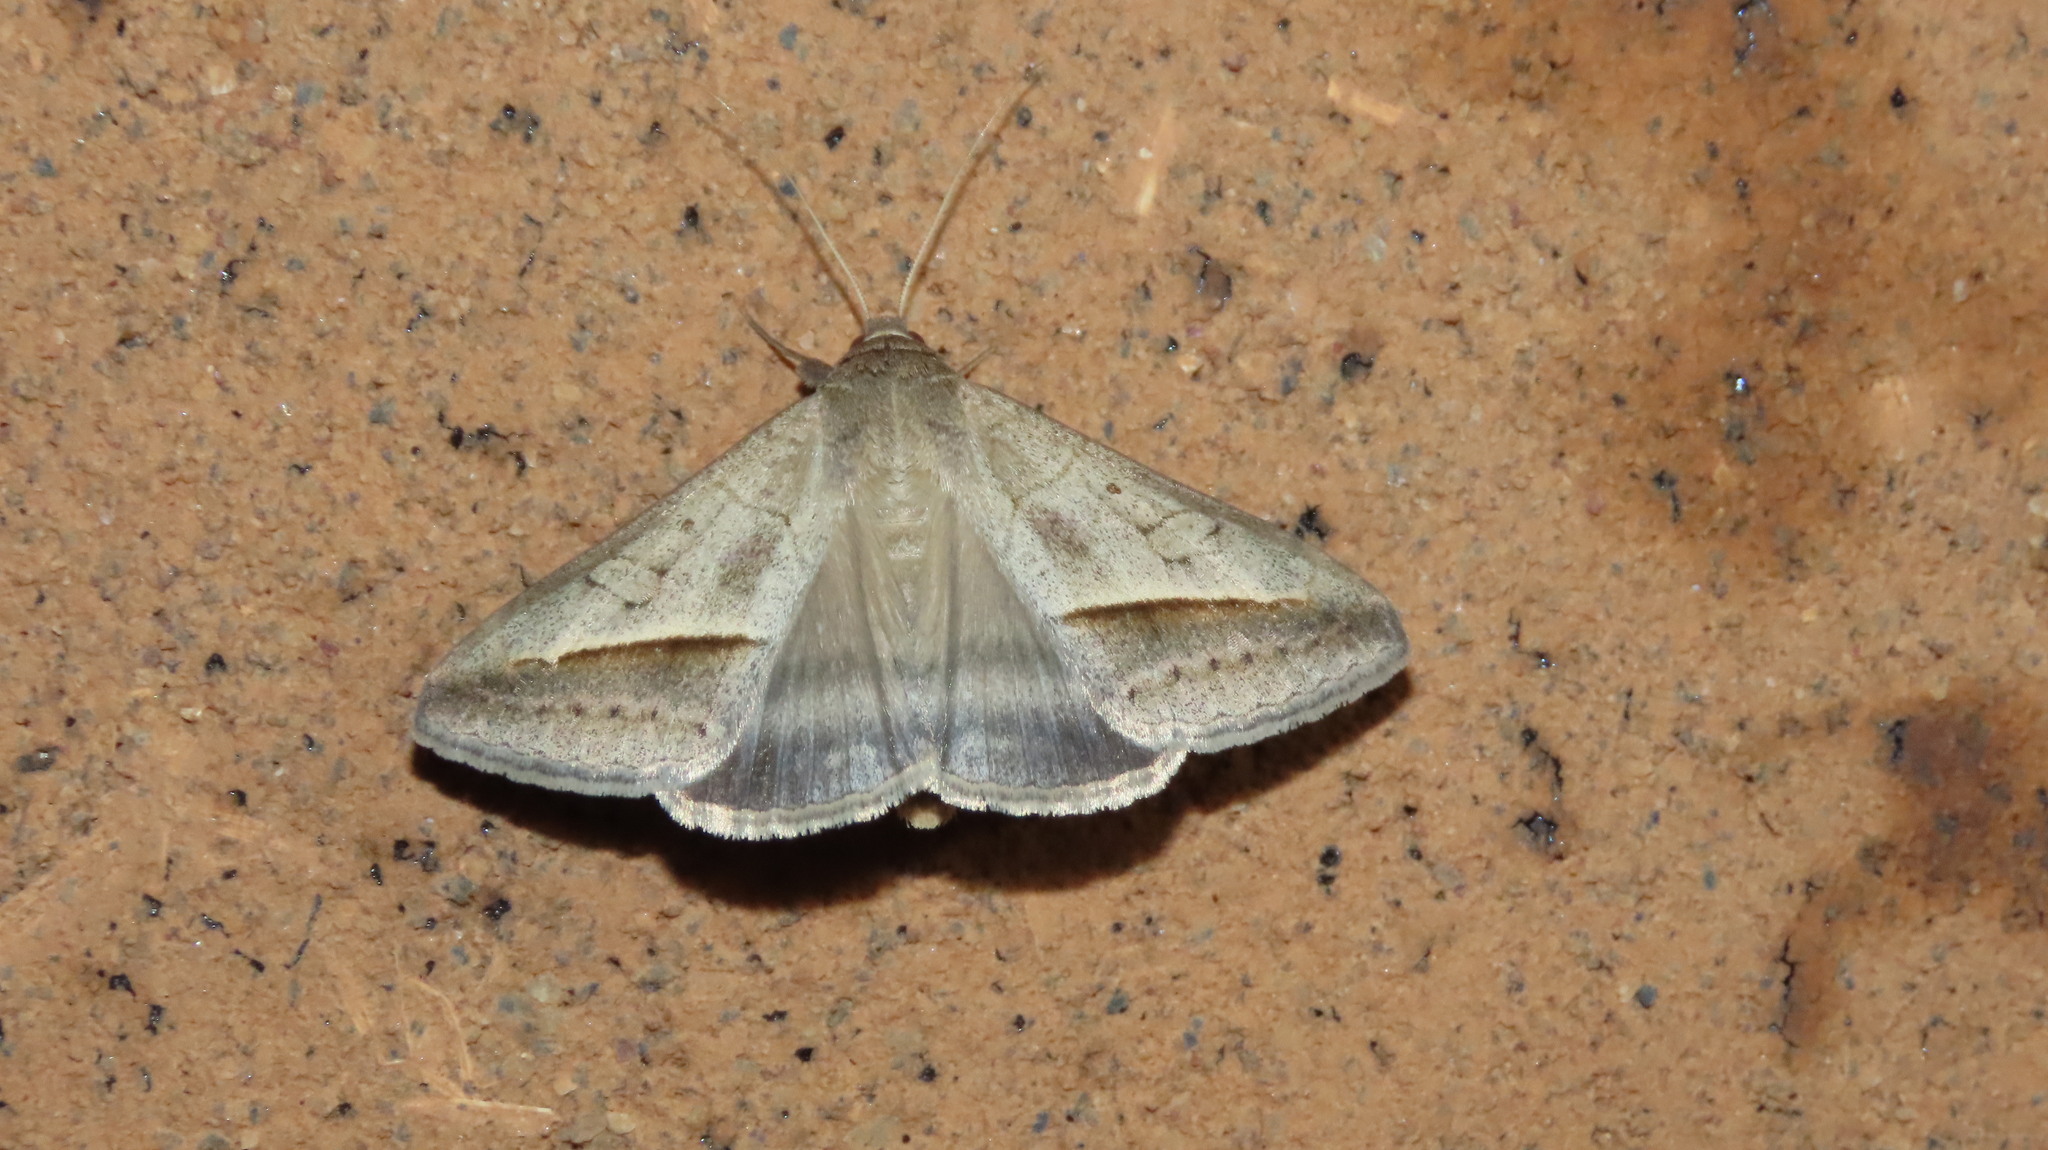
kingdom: Animalia
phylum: Arthropoda
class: Insecta
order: Lepidoptera
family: Erebidae
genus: Mocis
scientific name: Mocis frugalis
